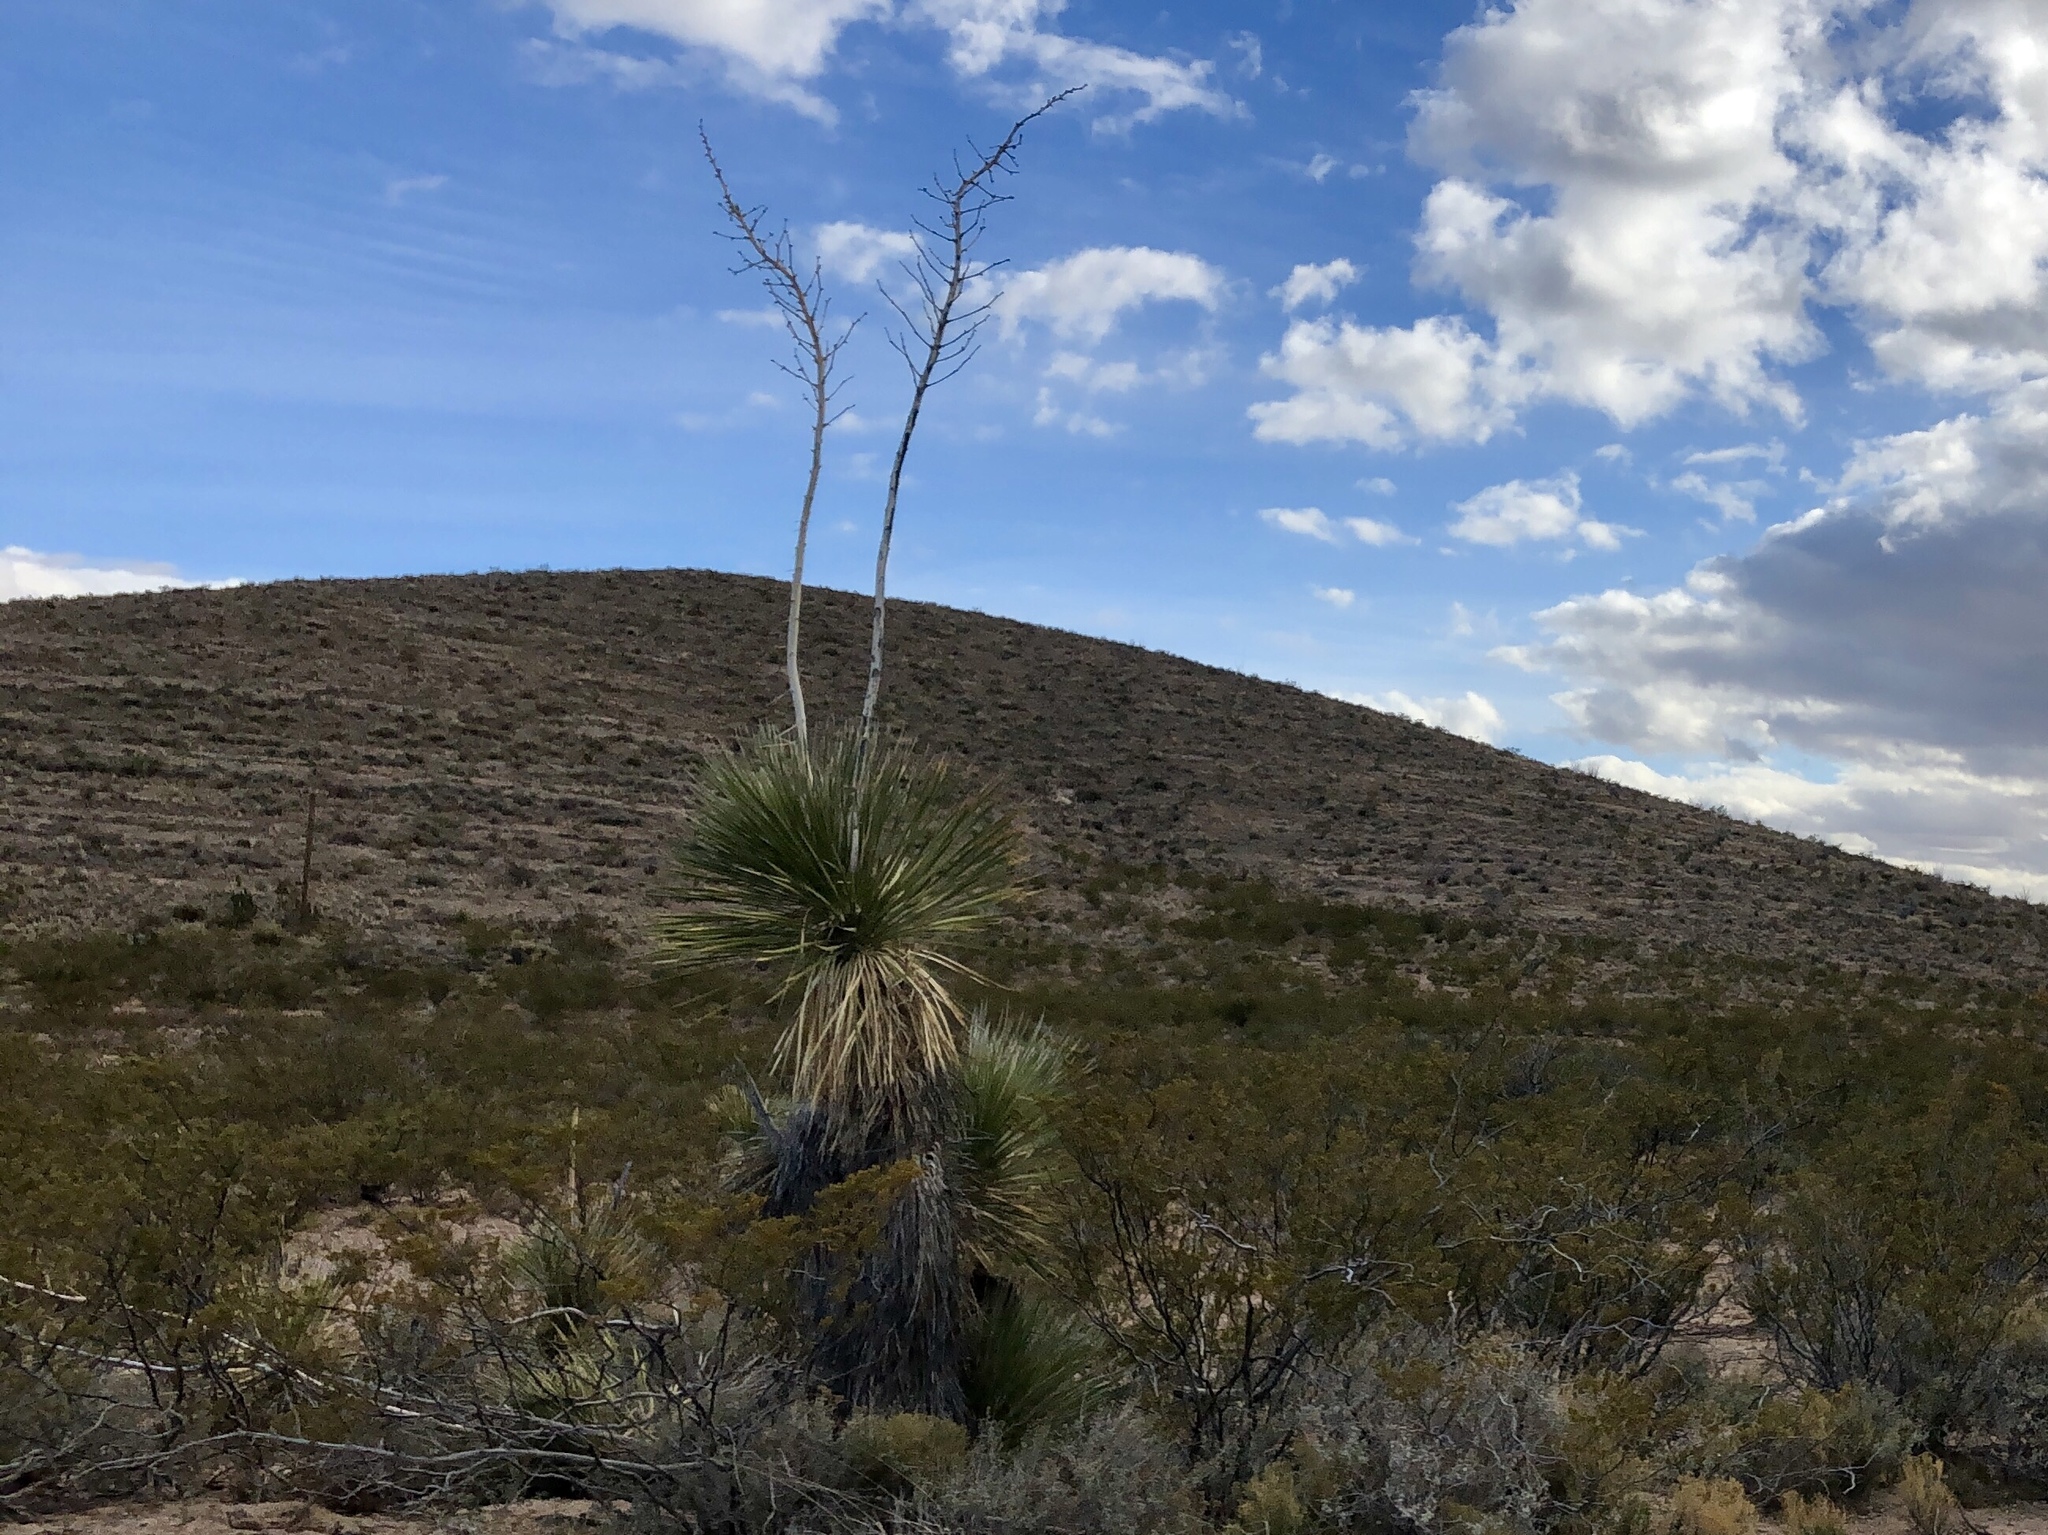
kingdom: Plantae
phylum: Tracheophyta
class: Liliopsida
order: Asparagales
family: Asparagaceae
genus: Yucca
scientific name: Yucca elata
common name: Palmella
